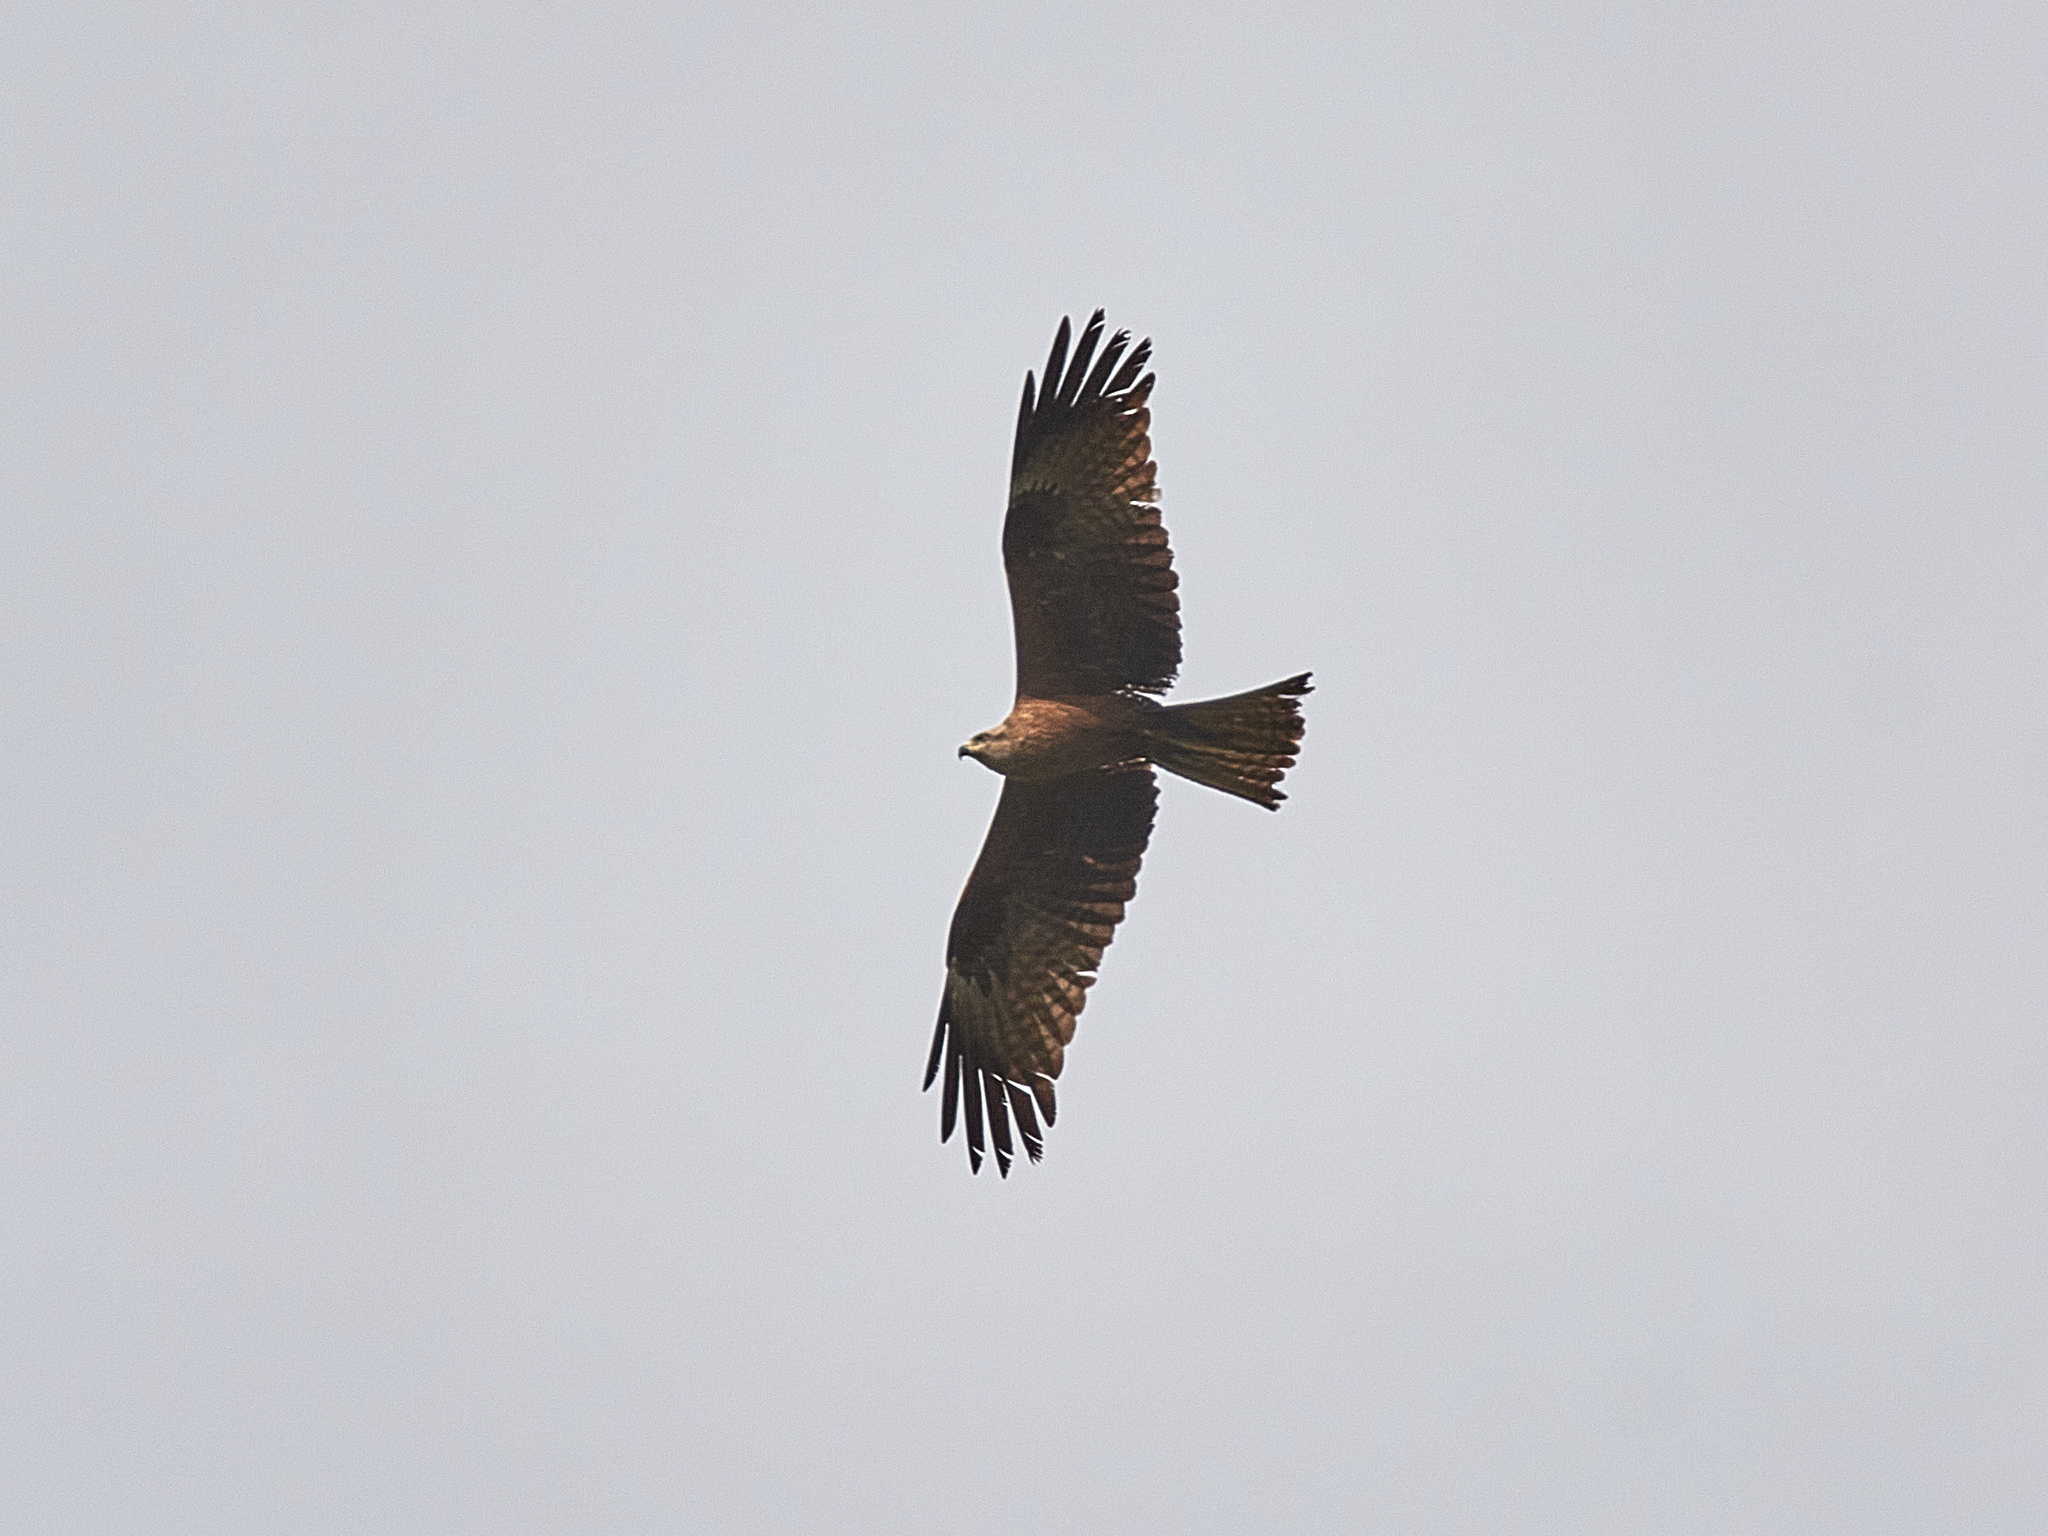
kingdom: Animalia
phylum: Chordata
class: Aves
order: Accipitriformes
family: Accipitridae
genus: Milvus
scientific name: Milvus migrans
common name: Black kite
